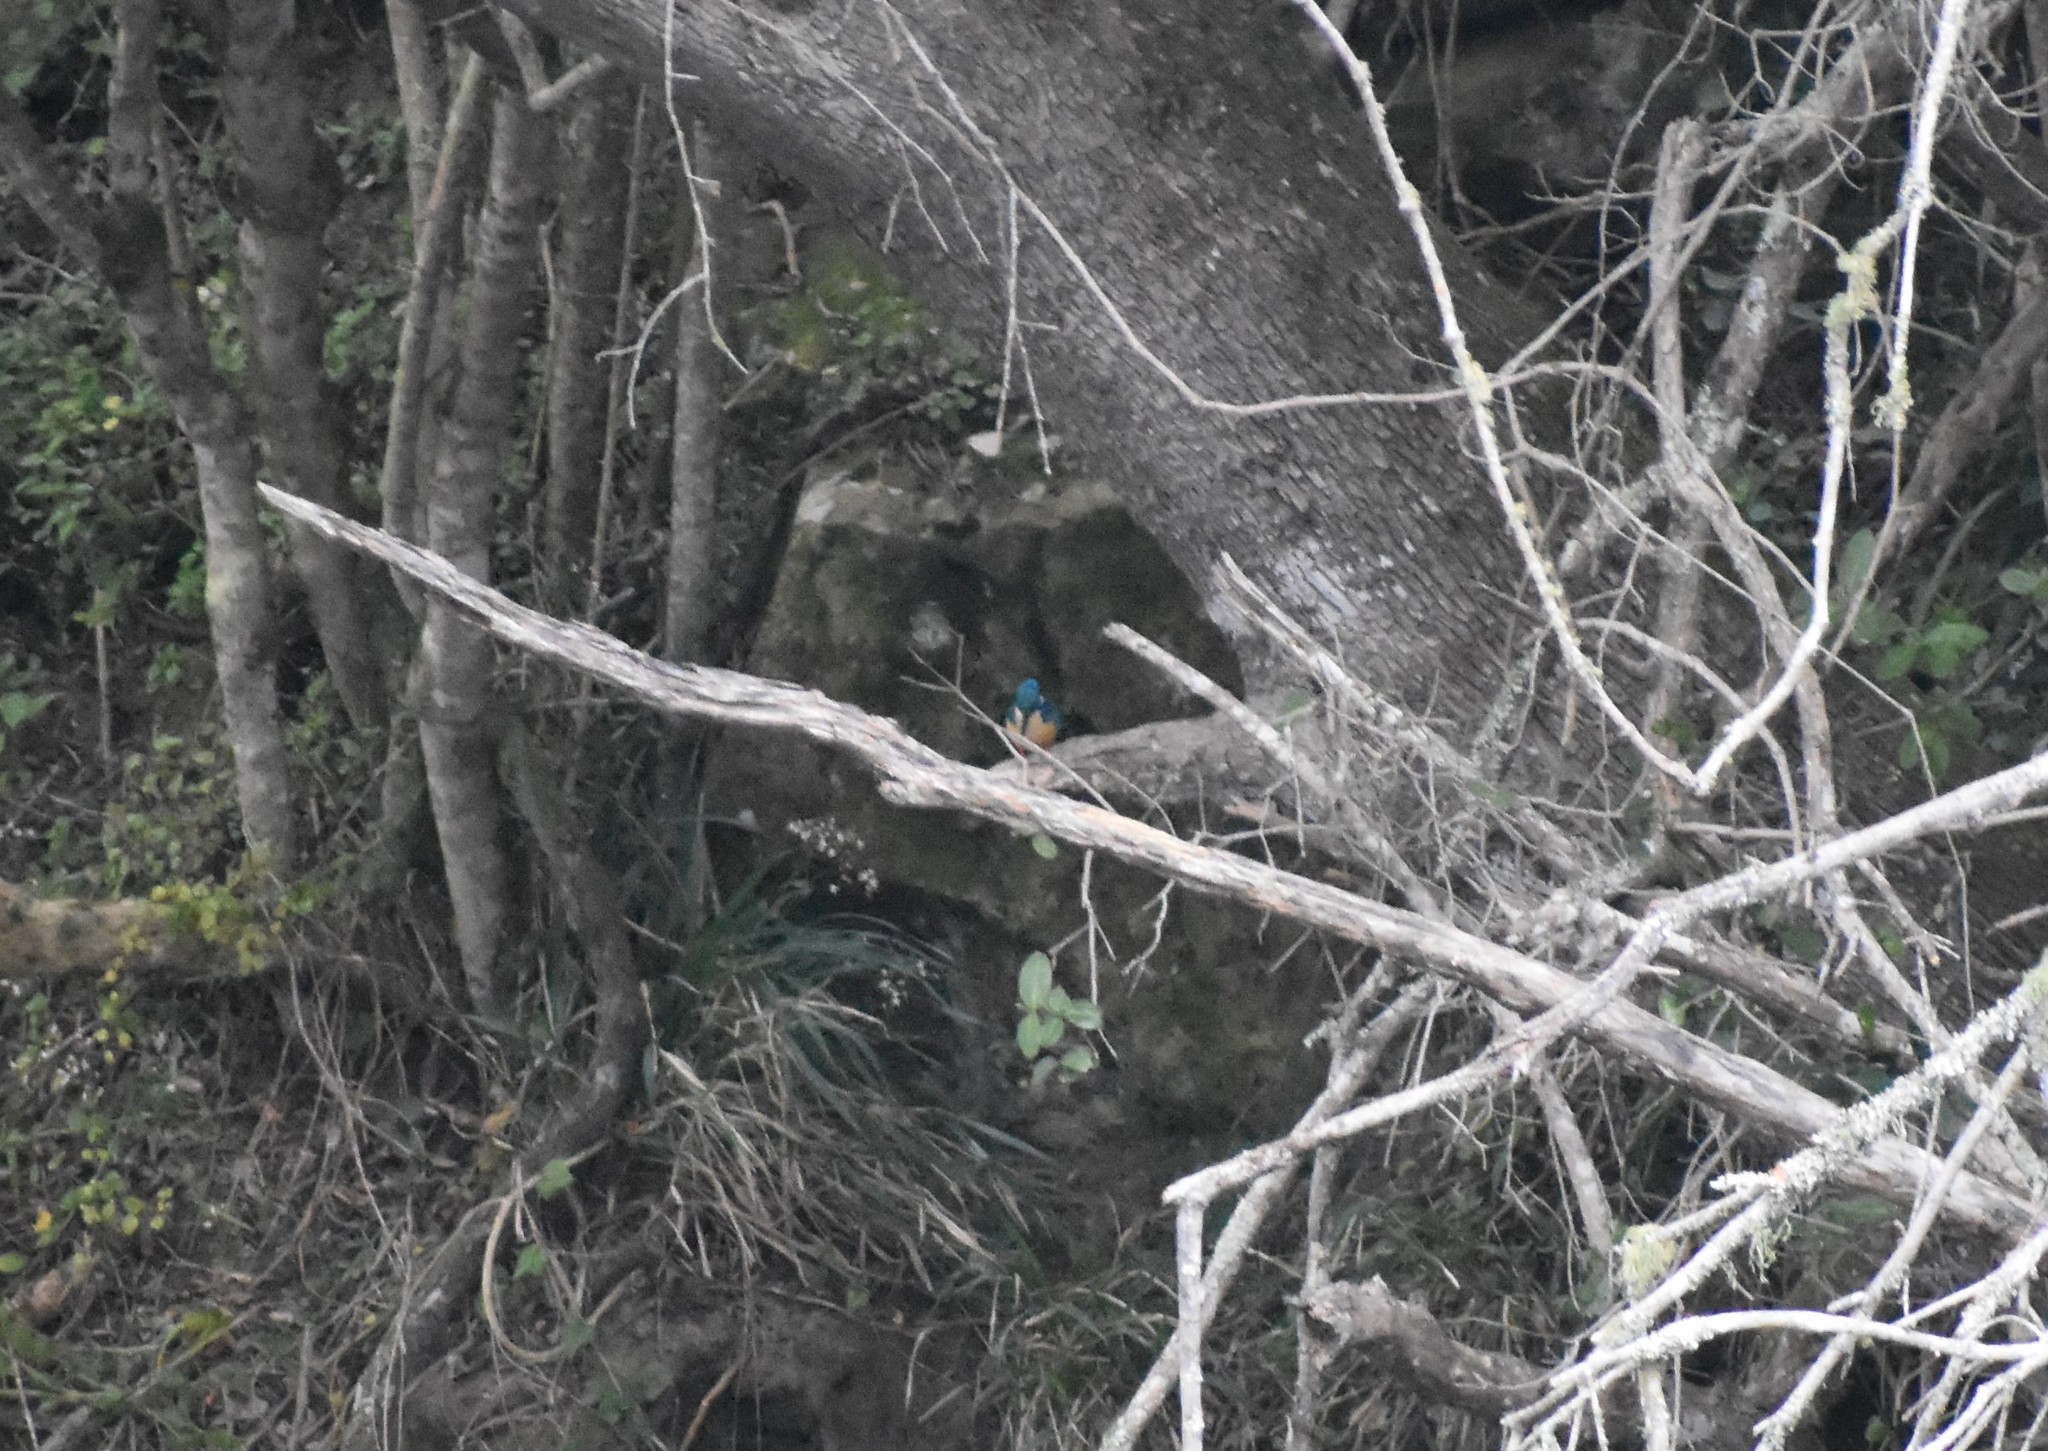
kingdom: Animalia
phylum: Chordata
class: Aves
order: Coraciiformes
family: Alcedinidae
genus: Alcedo
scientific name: Alcedo semitorquata
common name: Half-collared kingfisher
